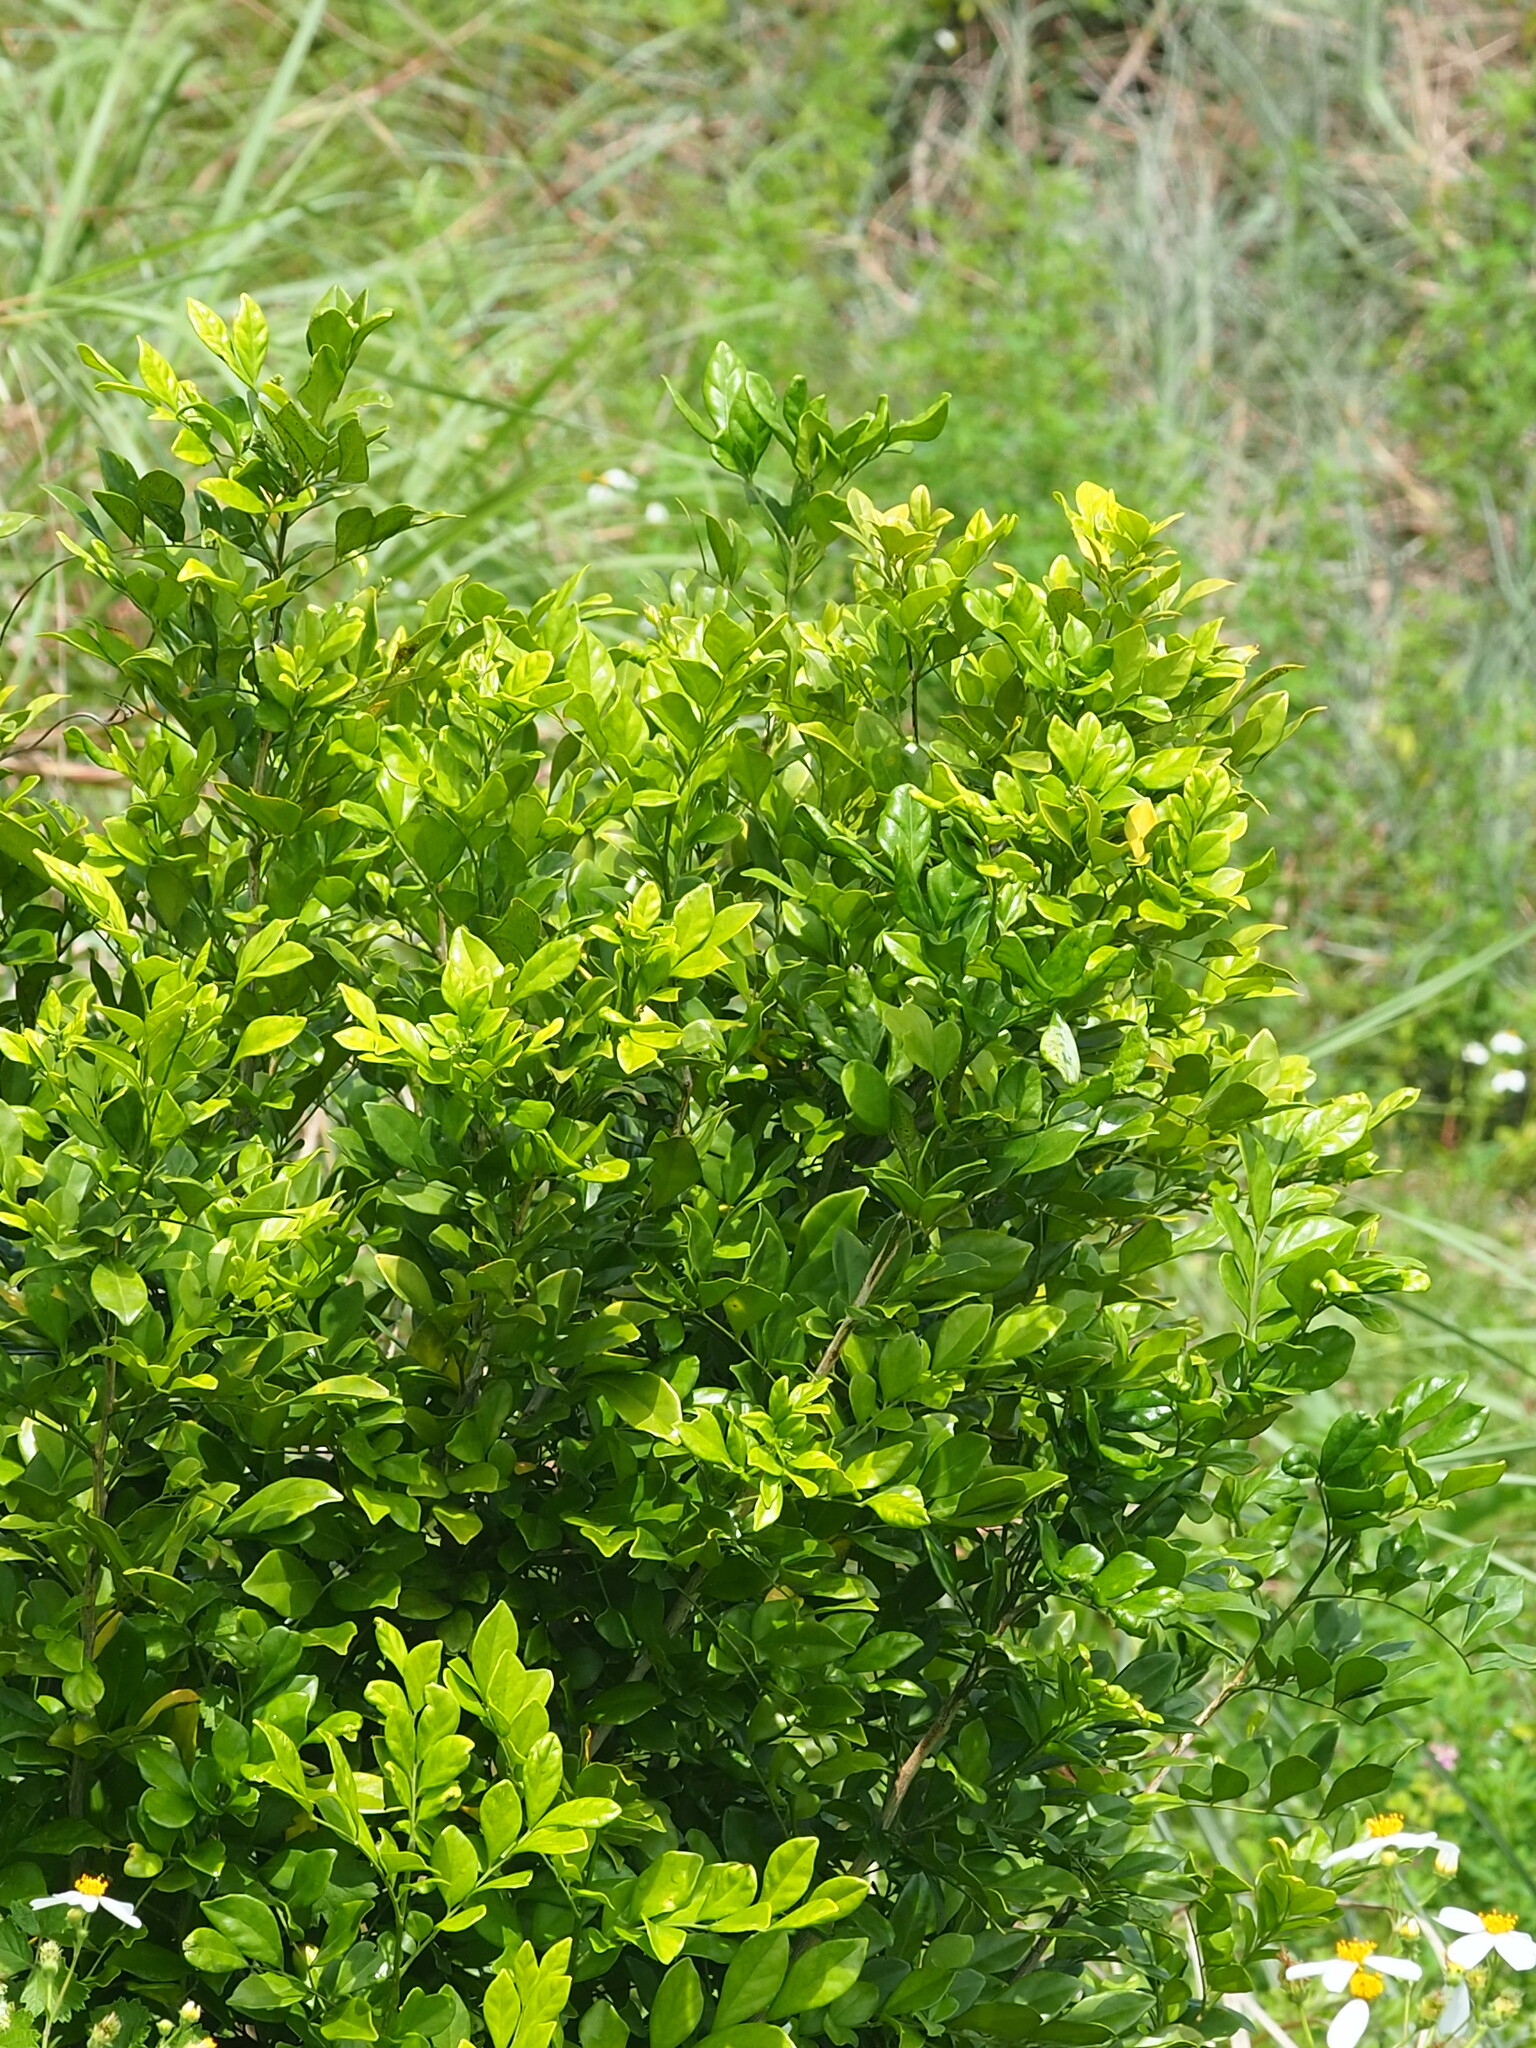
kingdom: Plantae
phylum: Tracheophyta
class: Magnoliopsida
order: Sapindales
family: Rutaceae
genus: Murraya
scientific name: Murraya paniculata
